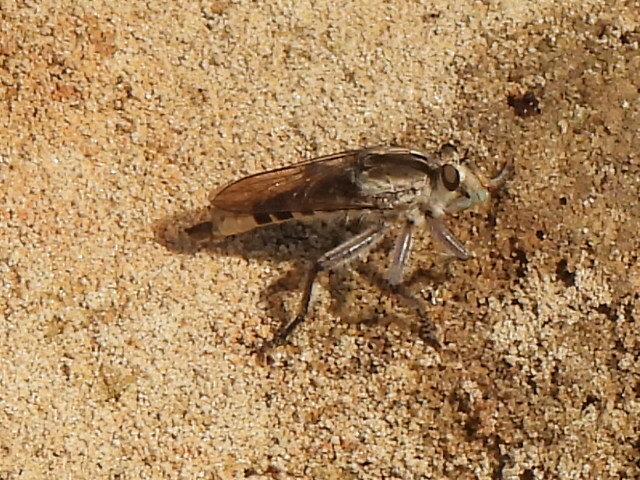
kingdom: Animalia
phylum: Arthropoda
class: Insecta
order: Diptera
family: Asilidae
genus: Triorla
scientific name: Triorla interrupta
